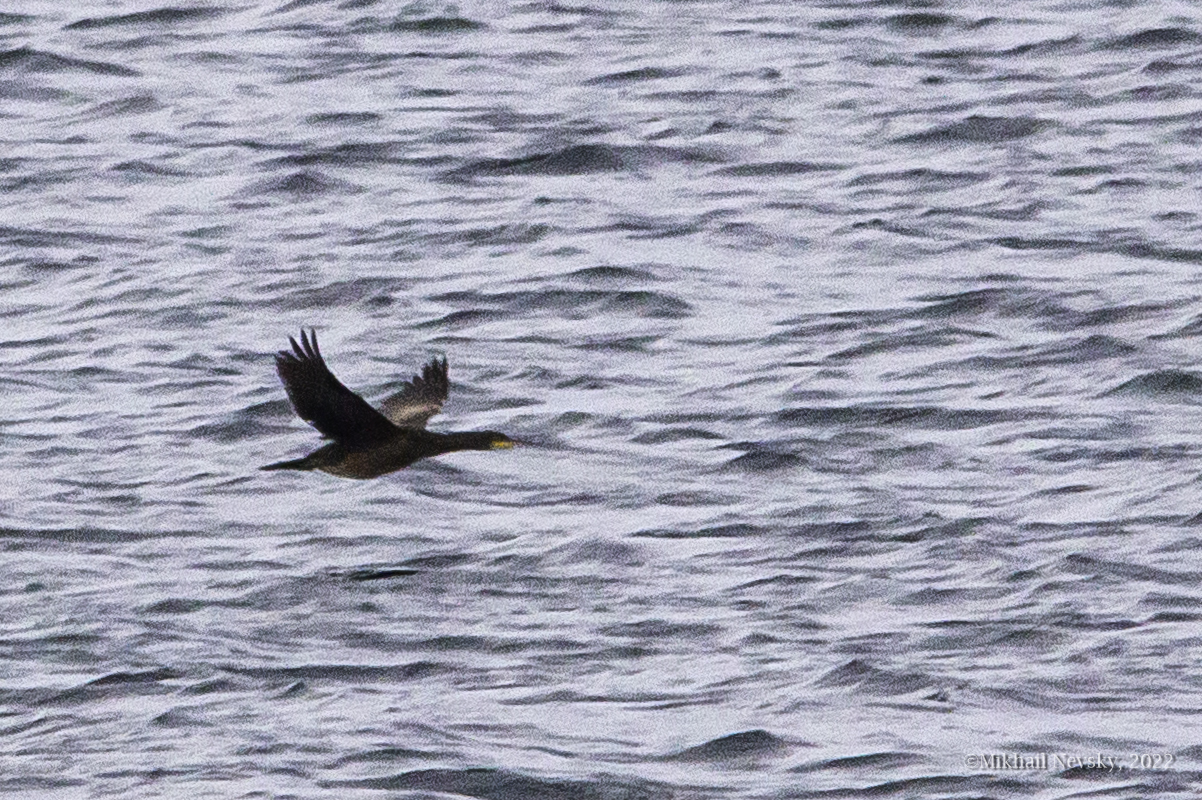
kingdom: Animalia
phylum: Chordata
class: Aves
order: Suliformes
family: Phalacrocoracidae
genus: Phalacrocorax
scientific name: Phalacrocorax aristotelis
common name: European shag
